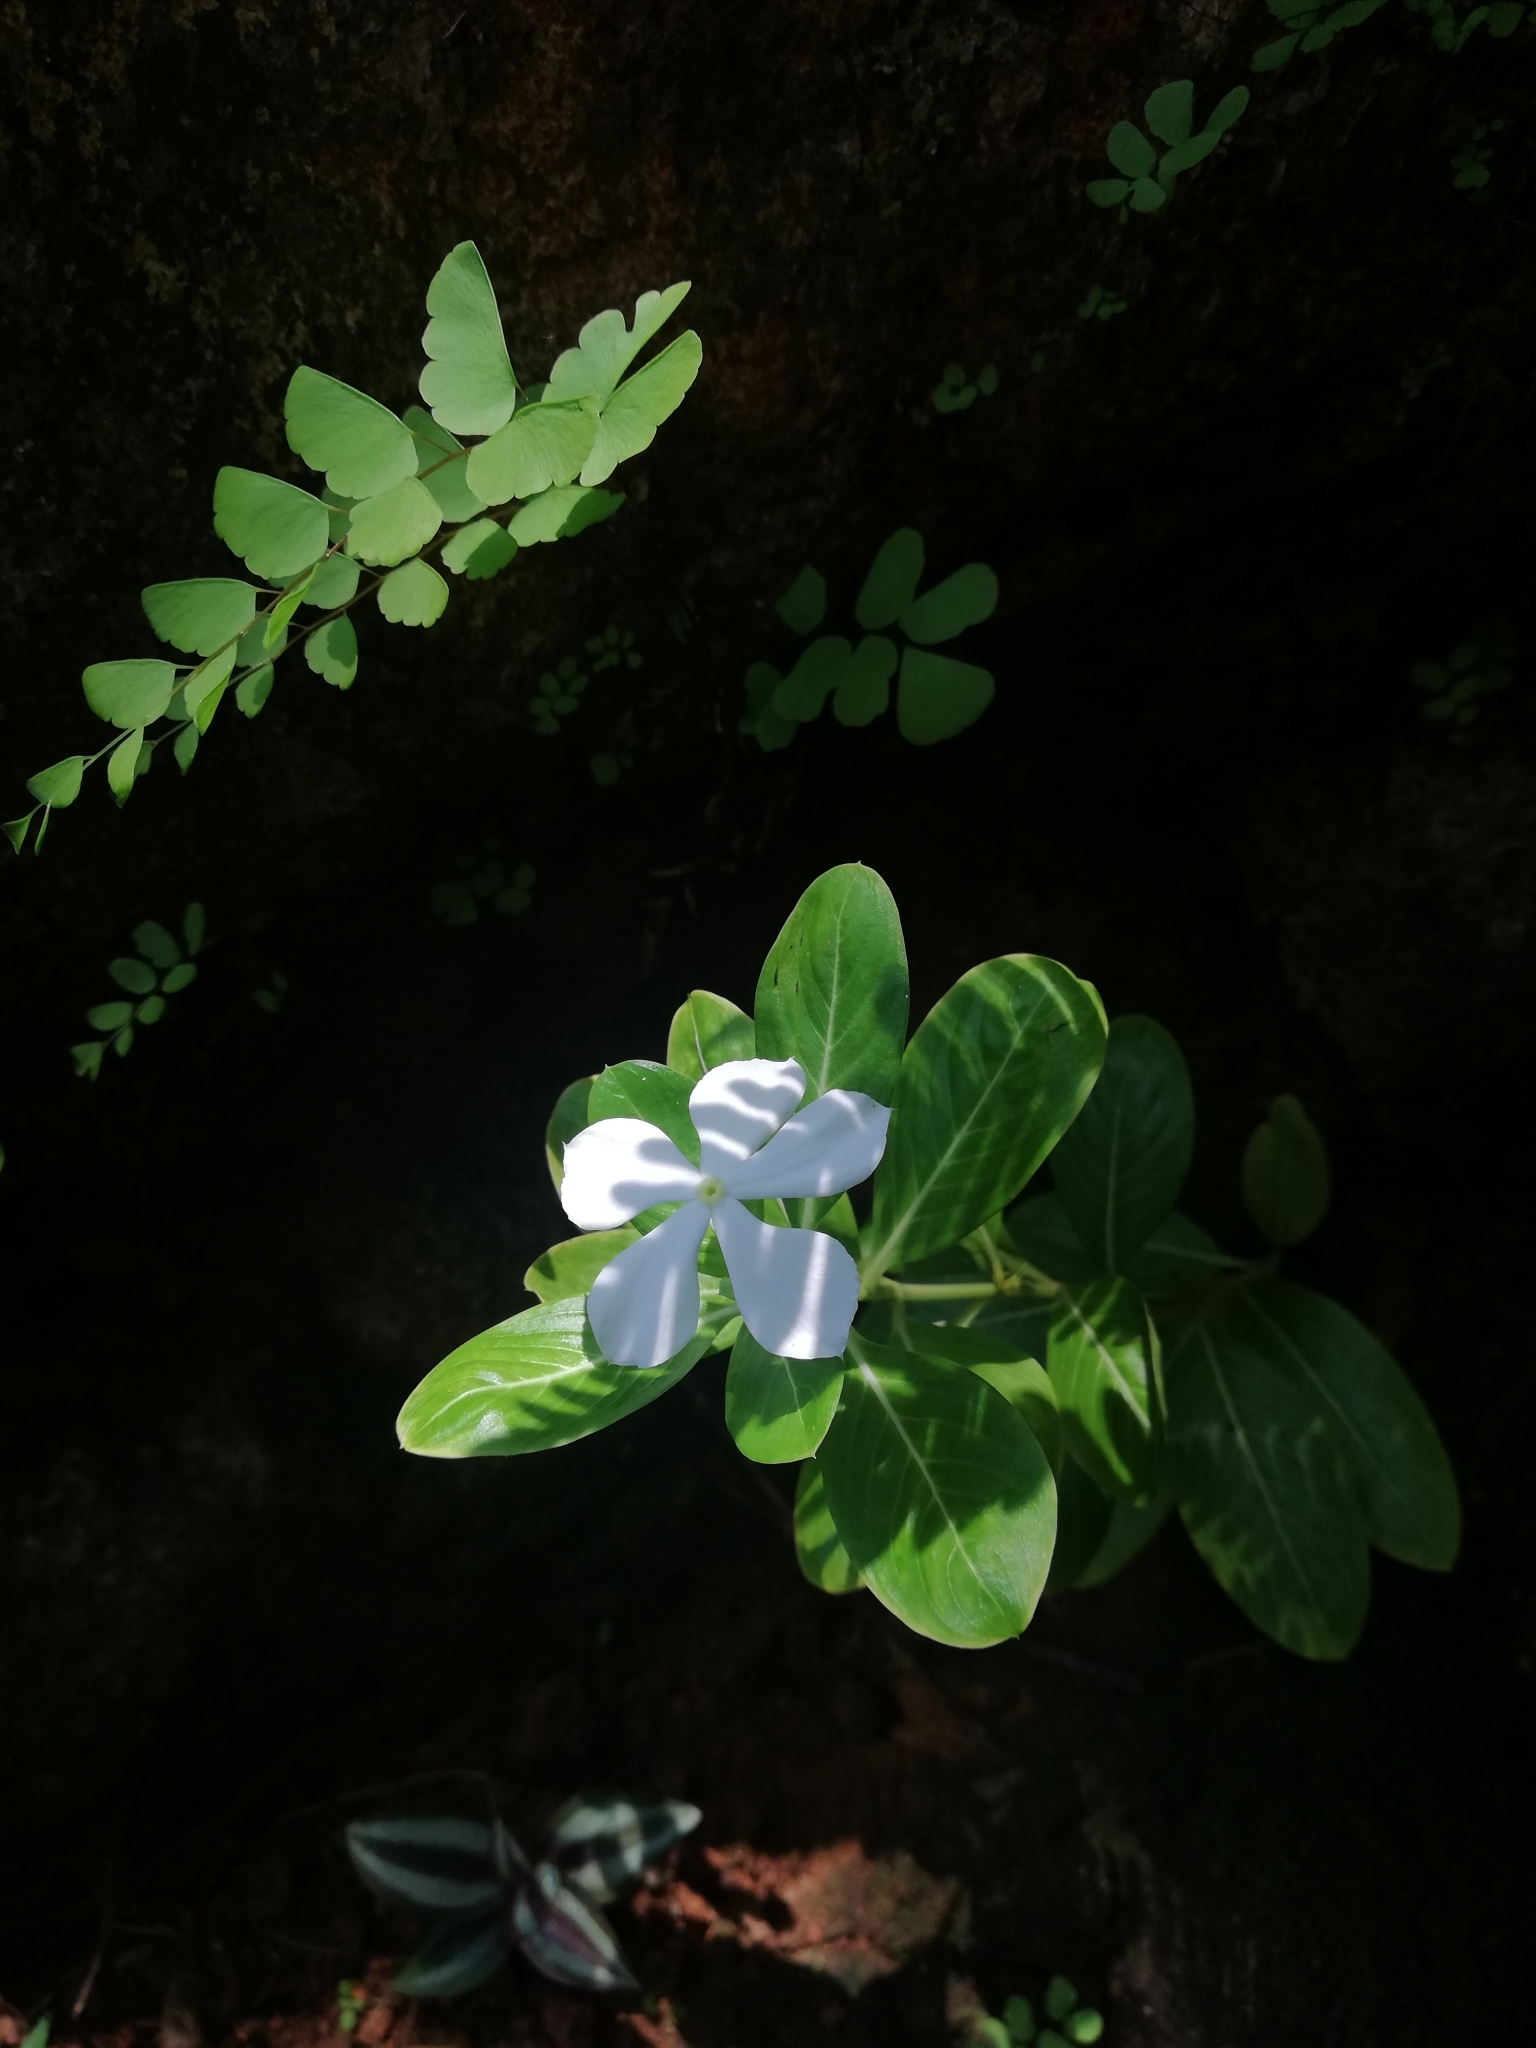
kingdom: Plantae
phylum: Tracheophyta
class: Magnoliopsida
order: Gentianales
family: Apocynaceae
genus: Catharanthus
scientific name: Catharanthus roseus
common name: Madagascar periwinkle
